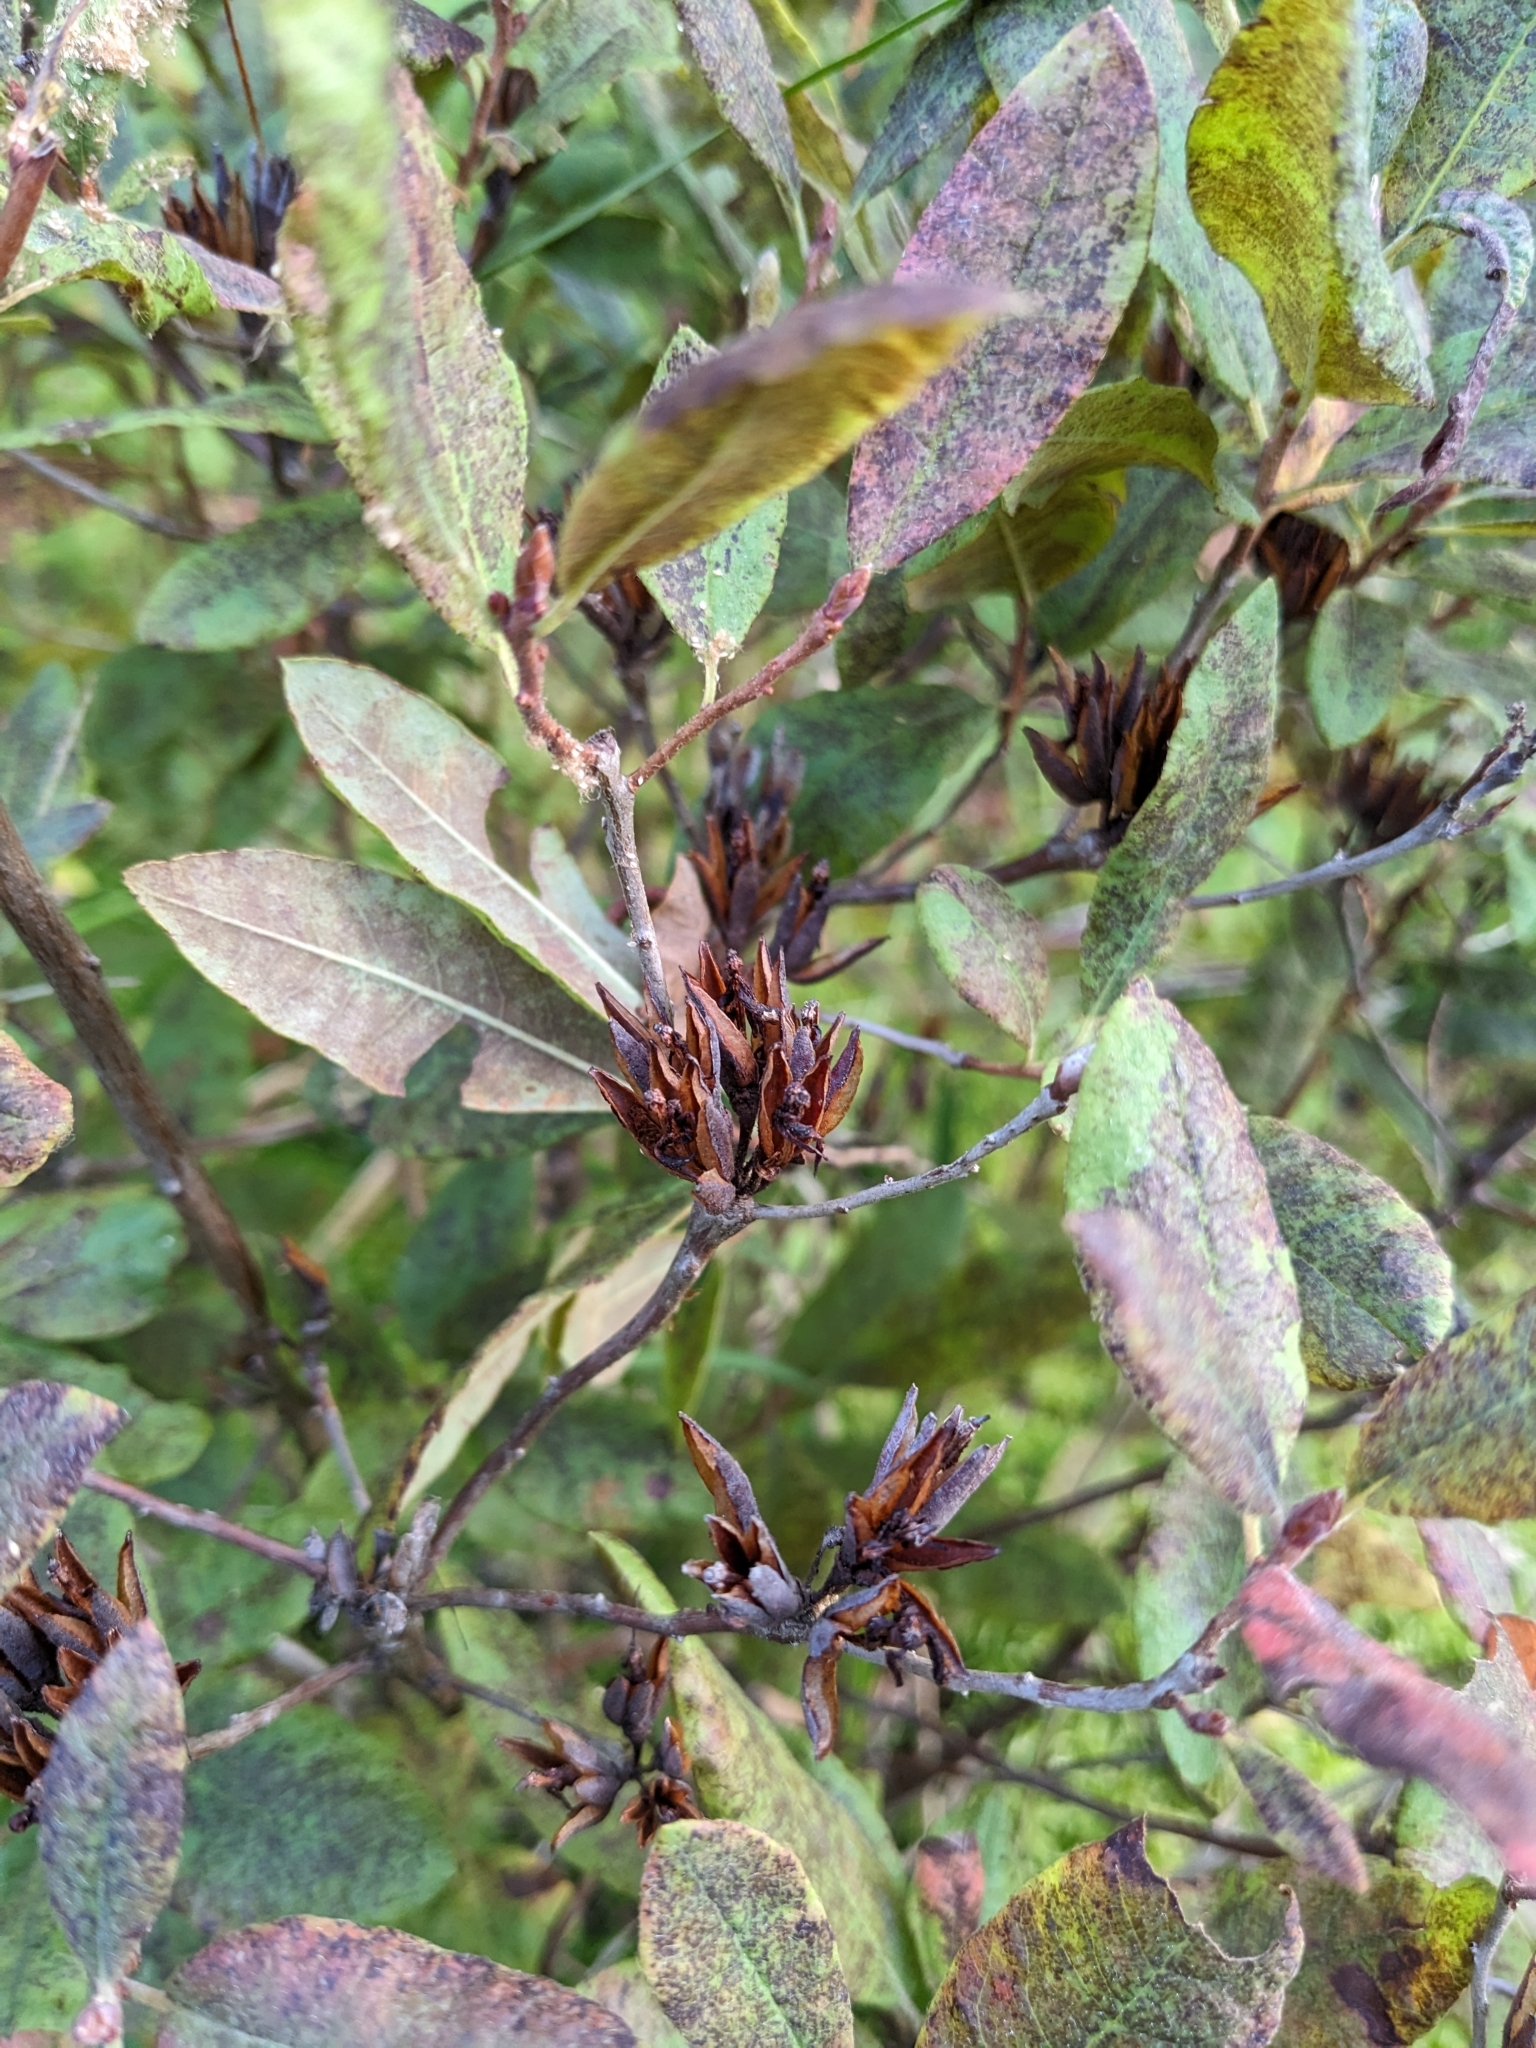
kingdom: Plantae
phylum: Tracheophyta
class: Magnoliopsida
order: Ericales
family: Ericaceae
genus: Rhododendron
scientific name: Rhododendron canadense
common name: Rhodora
